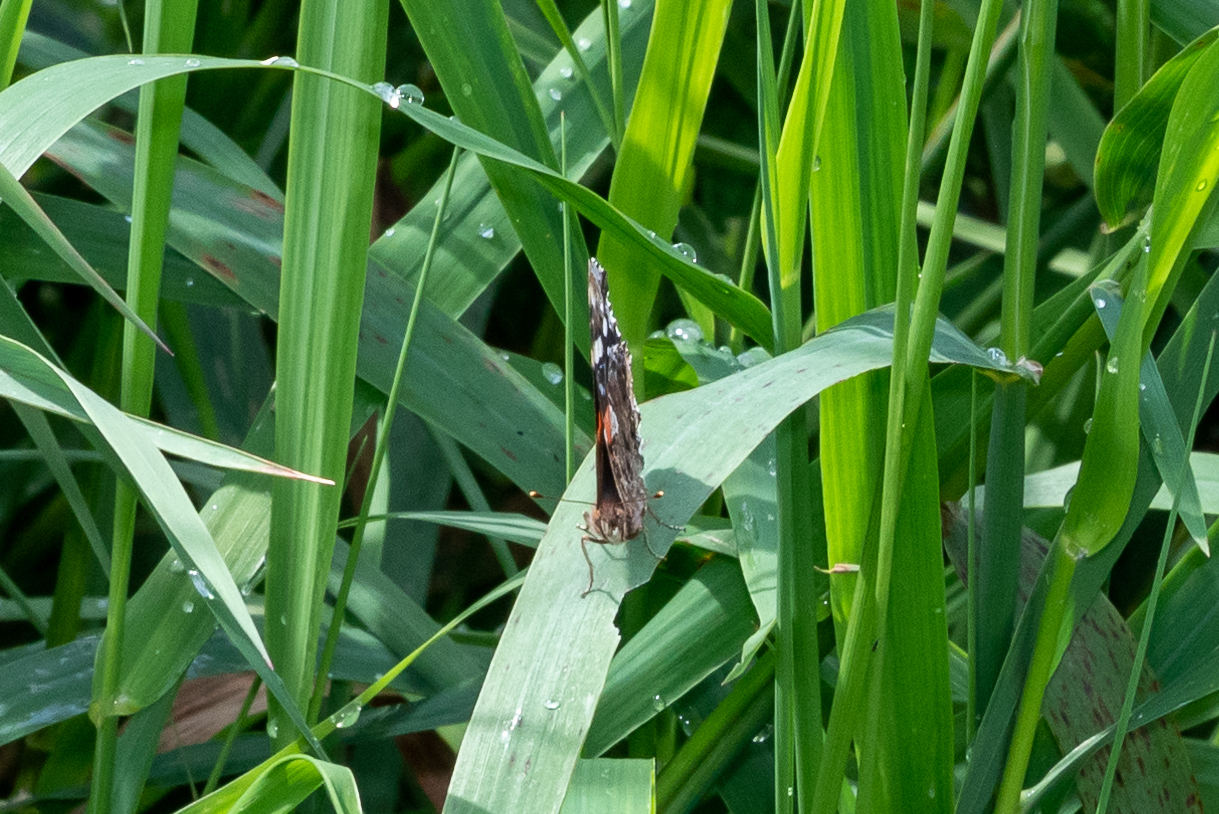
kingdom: Animalia
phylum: Arthropoda
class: Insecta
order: Lepidoptera
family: Nymphalidae
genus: Vanessa
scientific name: Vanessa atalanta
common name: Red admiral
